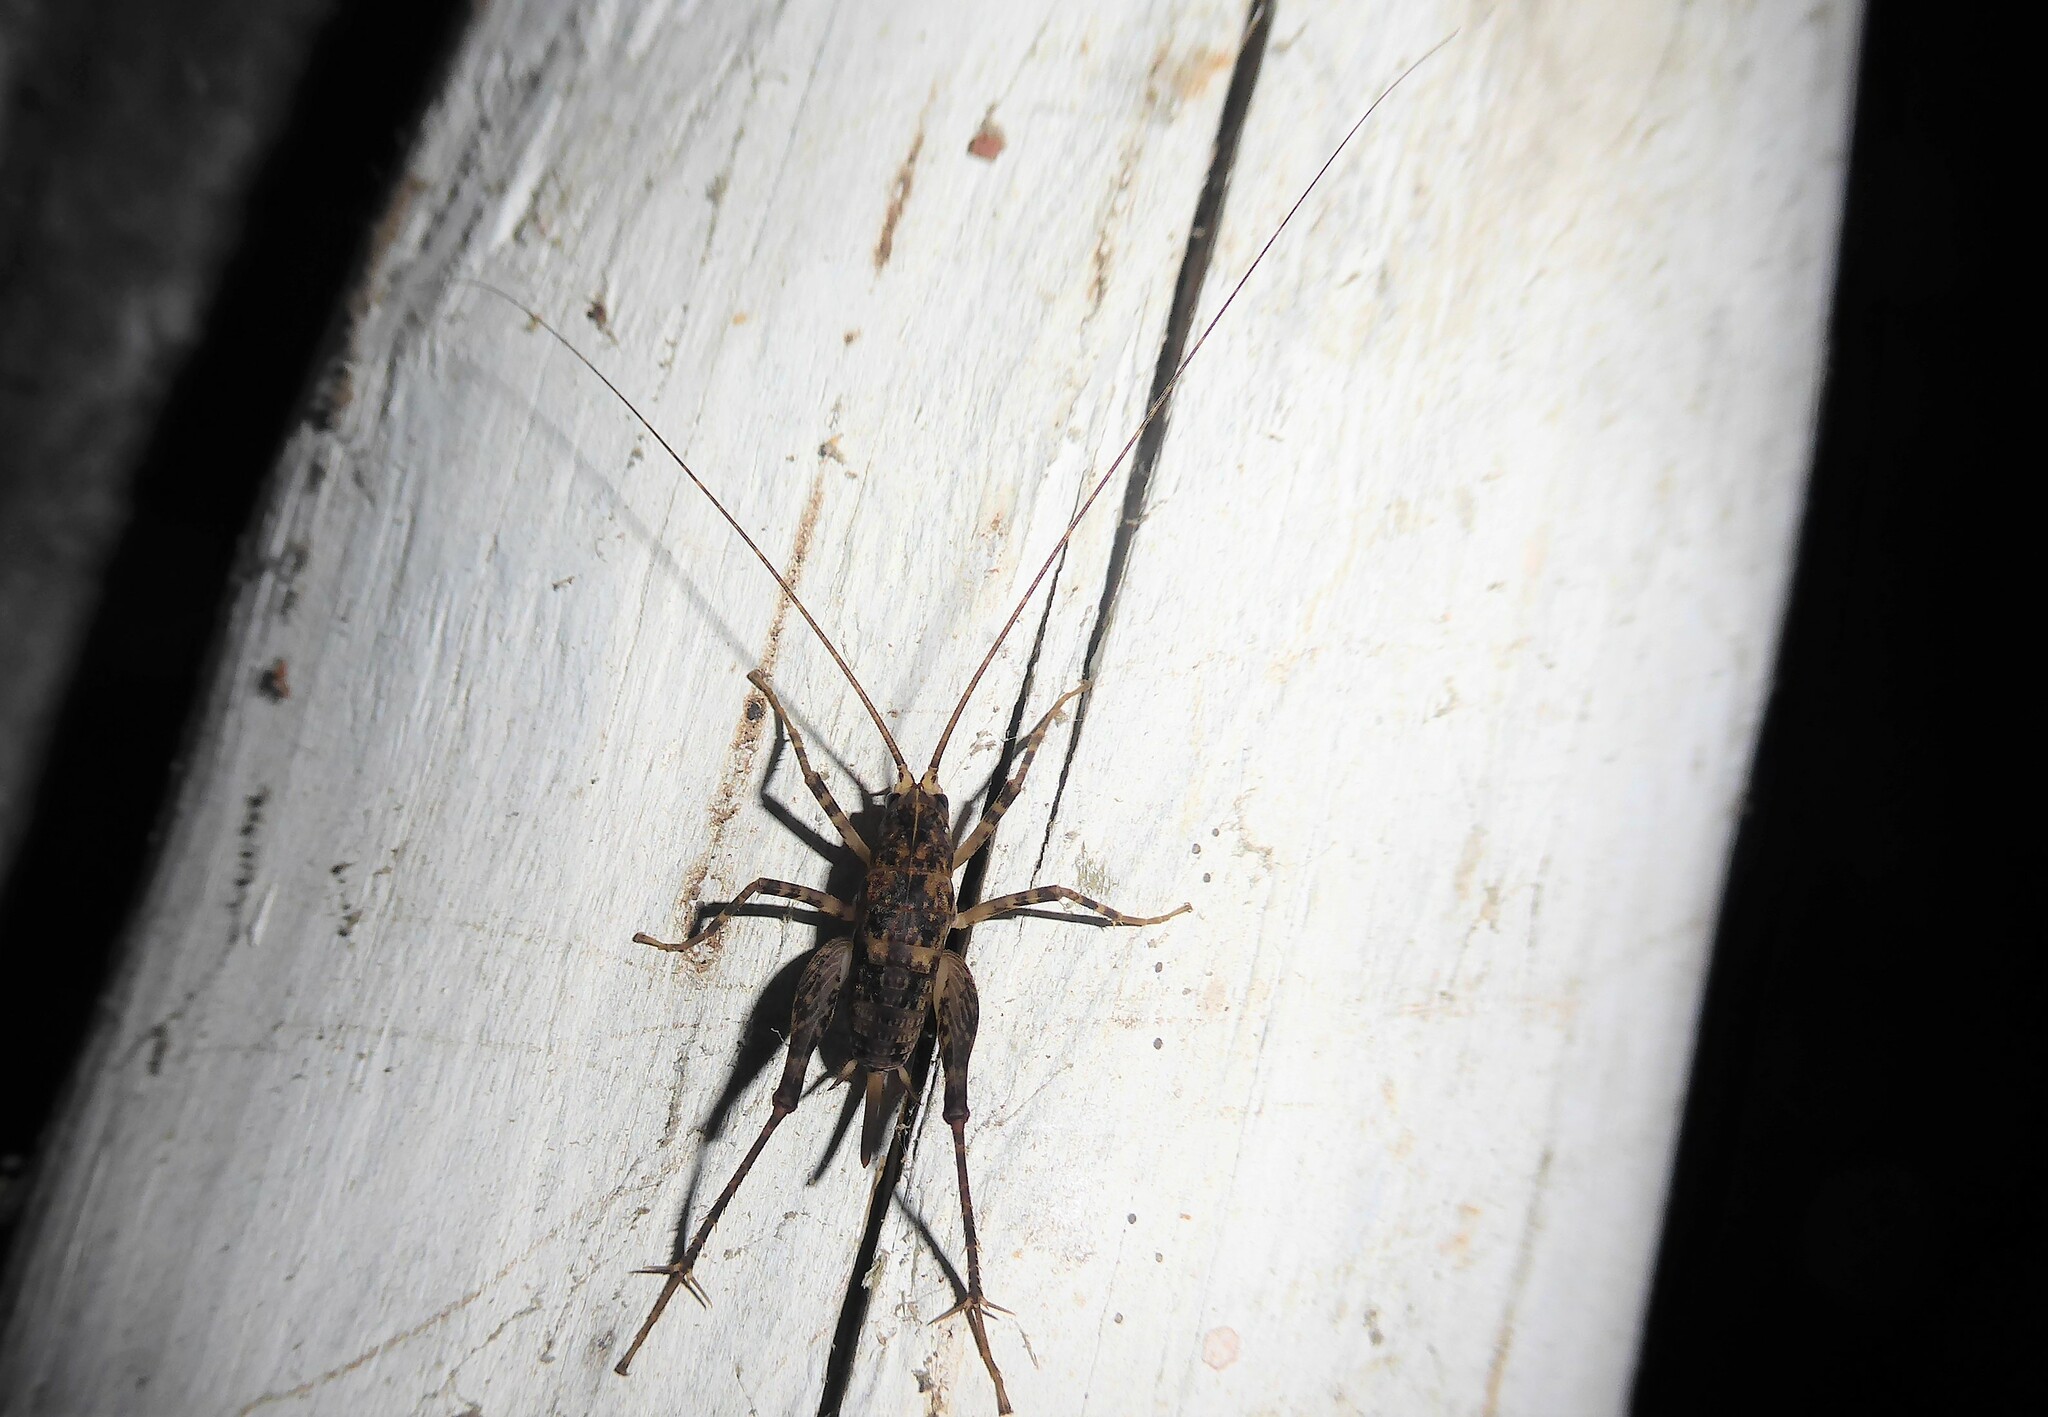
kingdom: Animalia
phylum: Arthropoda
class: Insecta
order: Orthoptera
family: Rhaphidophoridae
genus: Pleioplectron
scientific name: Pleioplectron simplex
